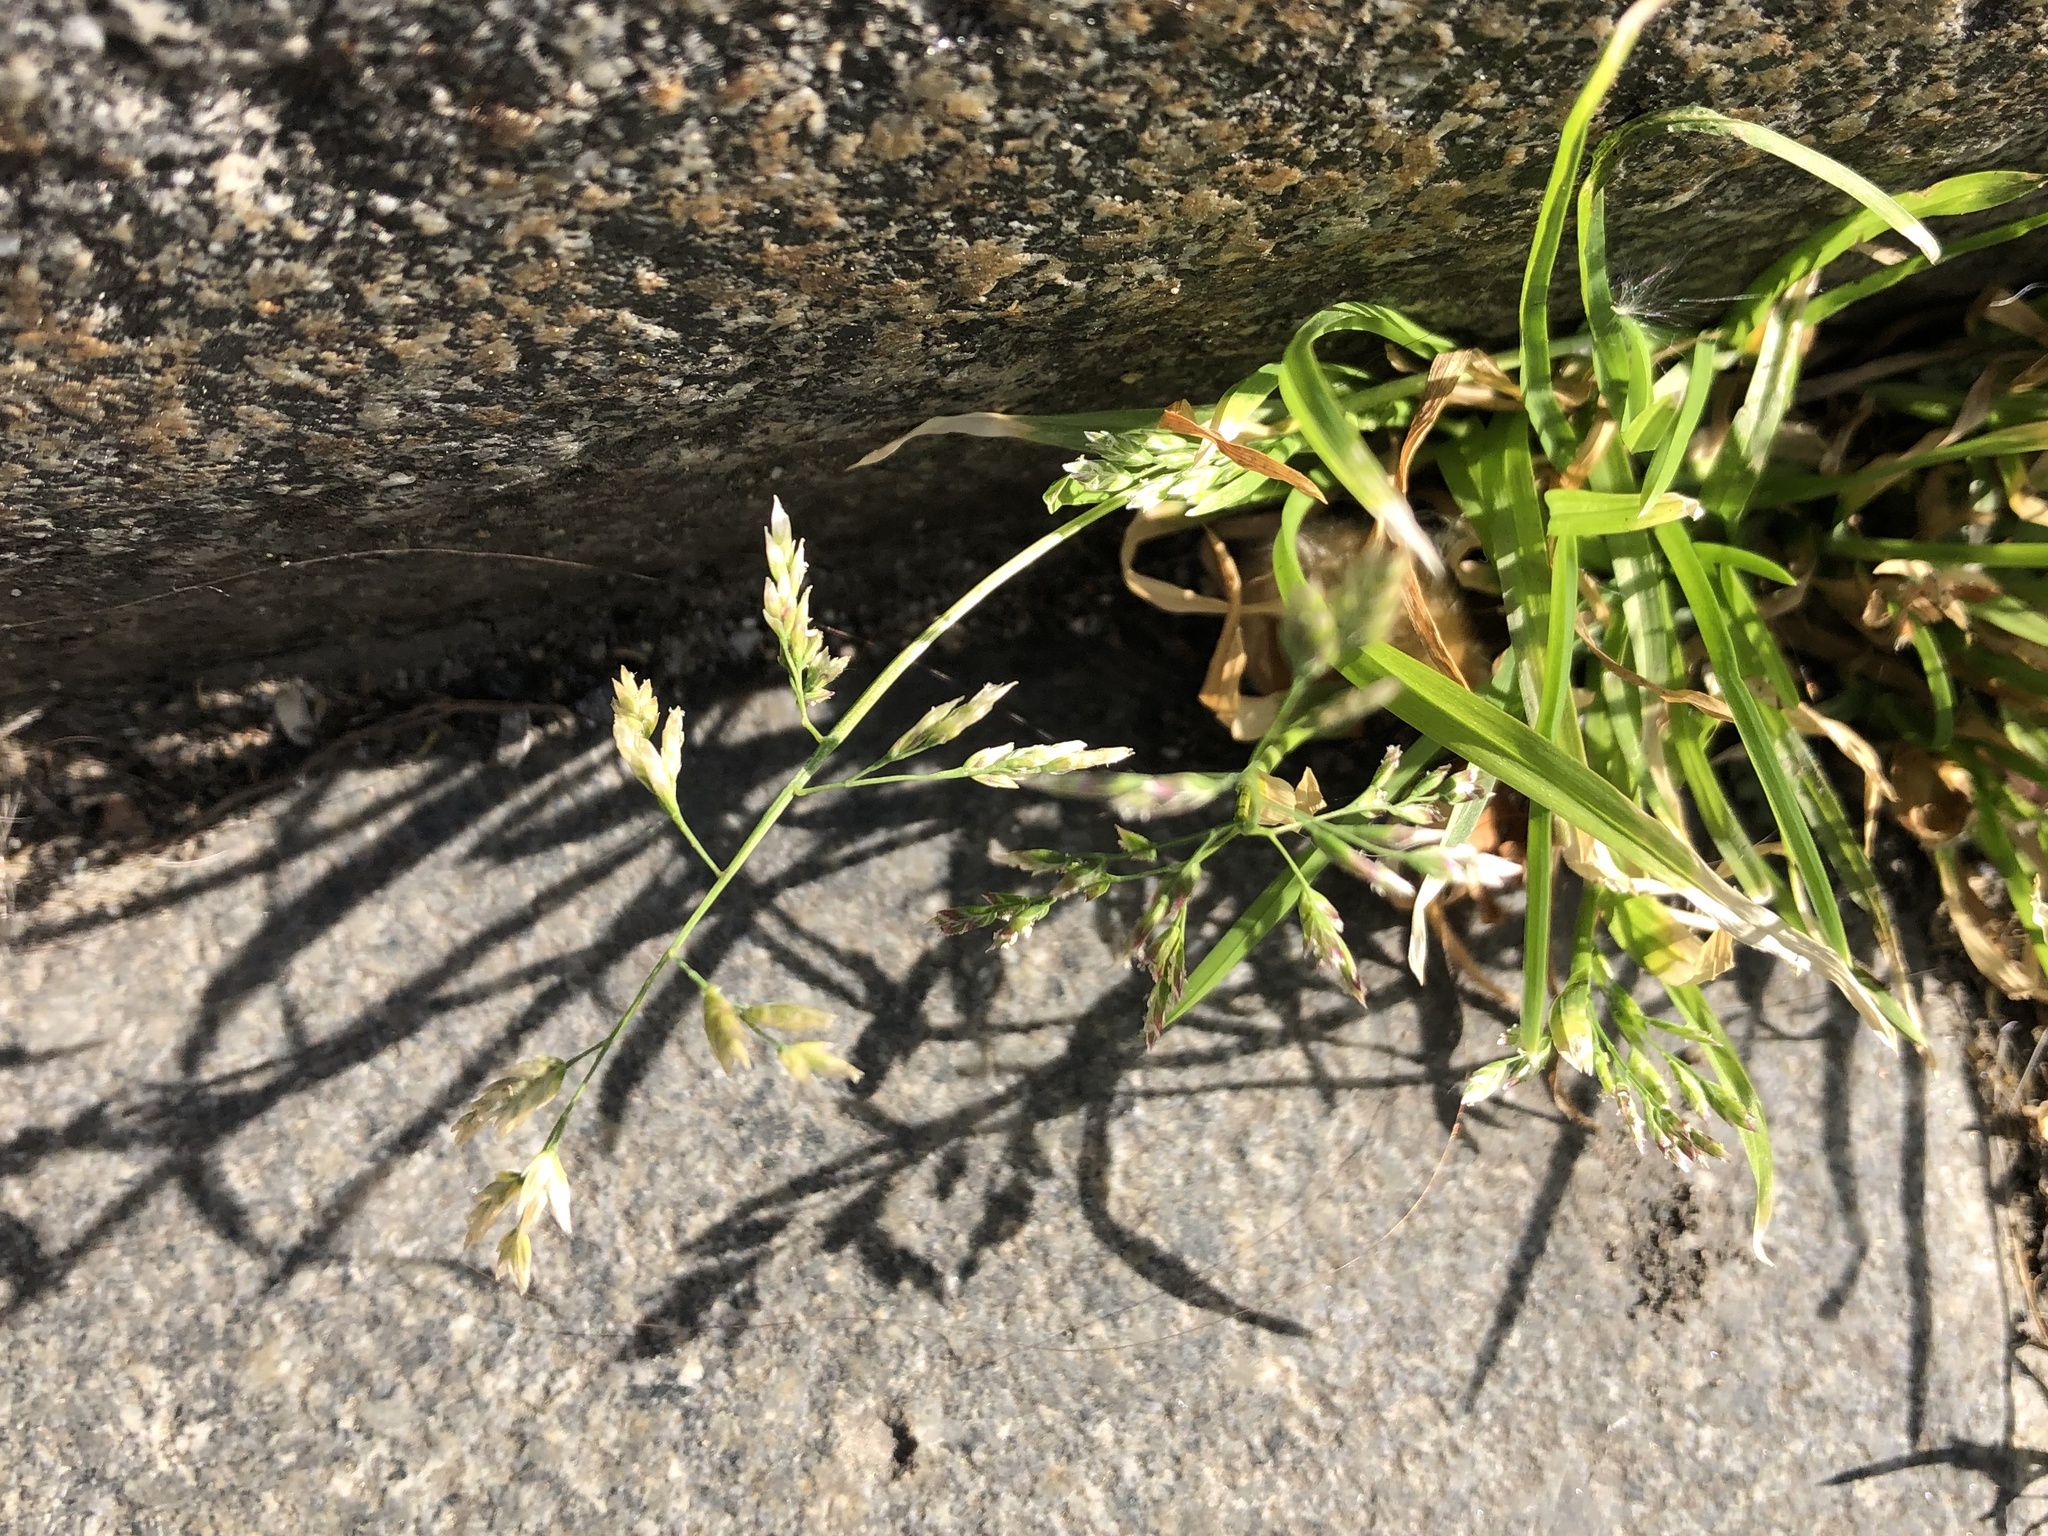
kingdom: Plantae
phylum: Tracheophyta
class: Liliopsida
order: Poales
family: Poaceae
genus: Poa
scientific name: Poa annua
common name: Annual bluegrass
